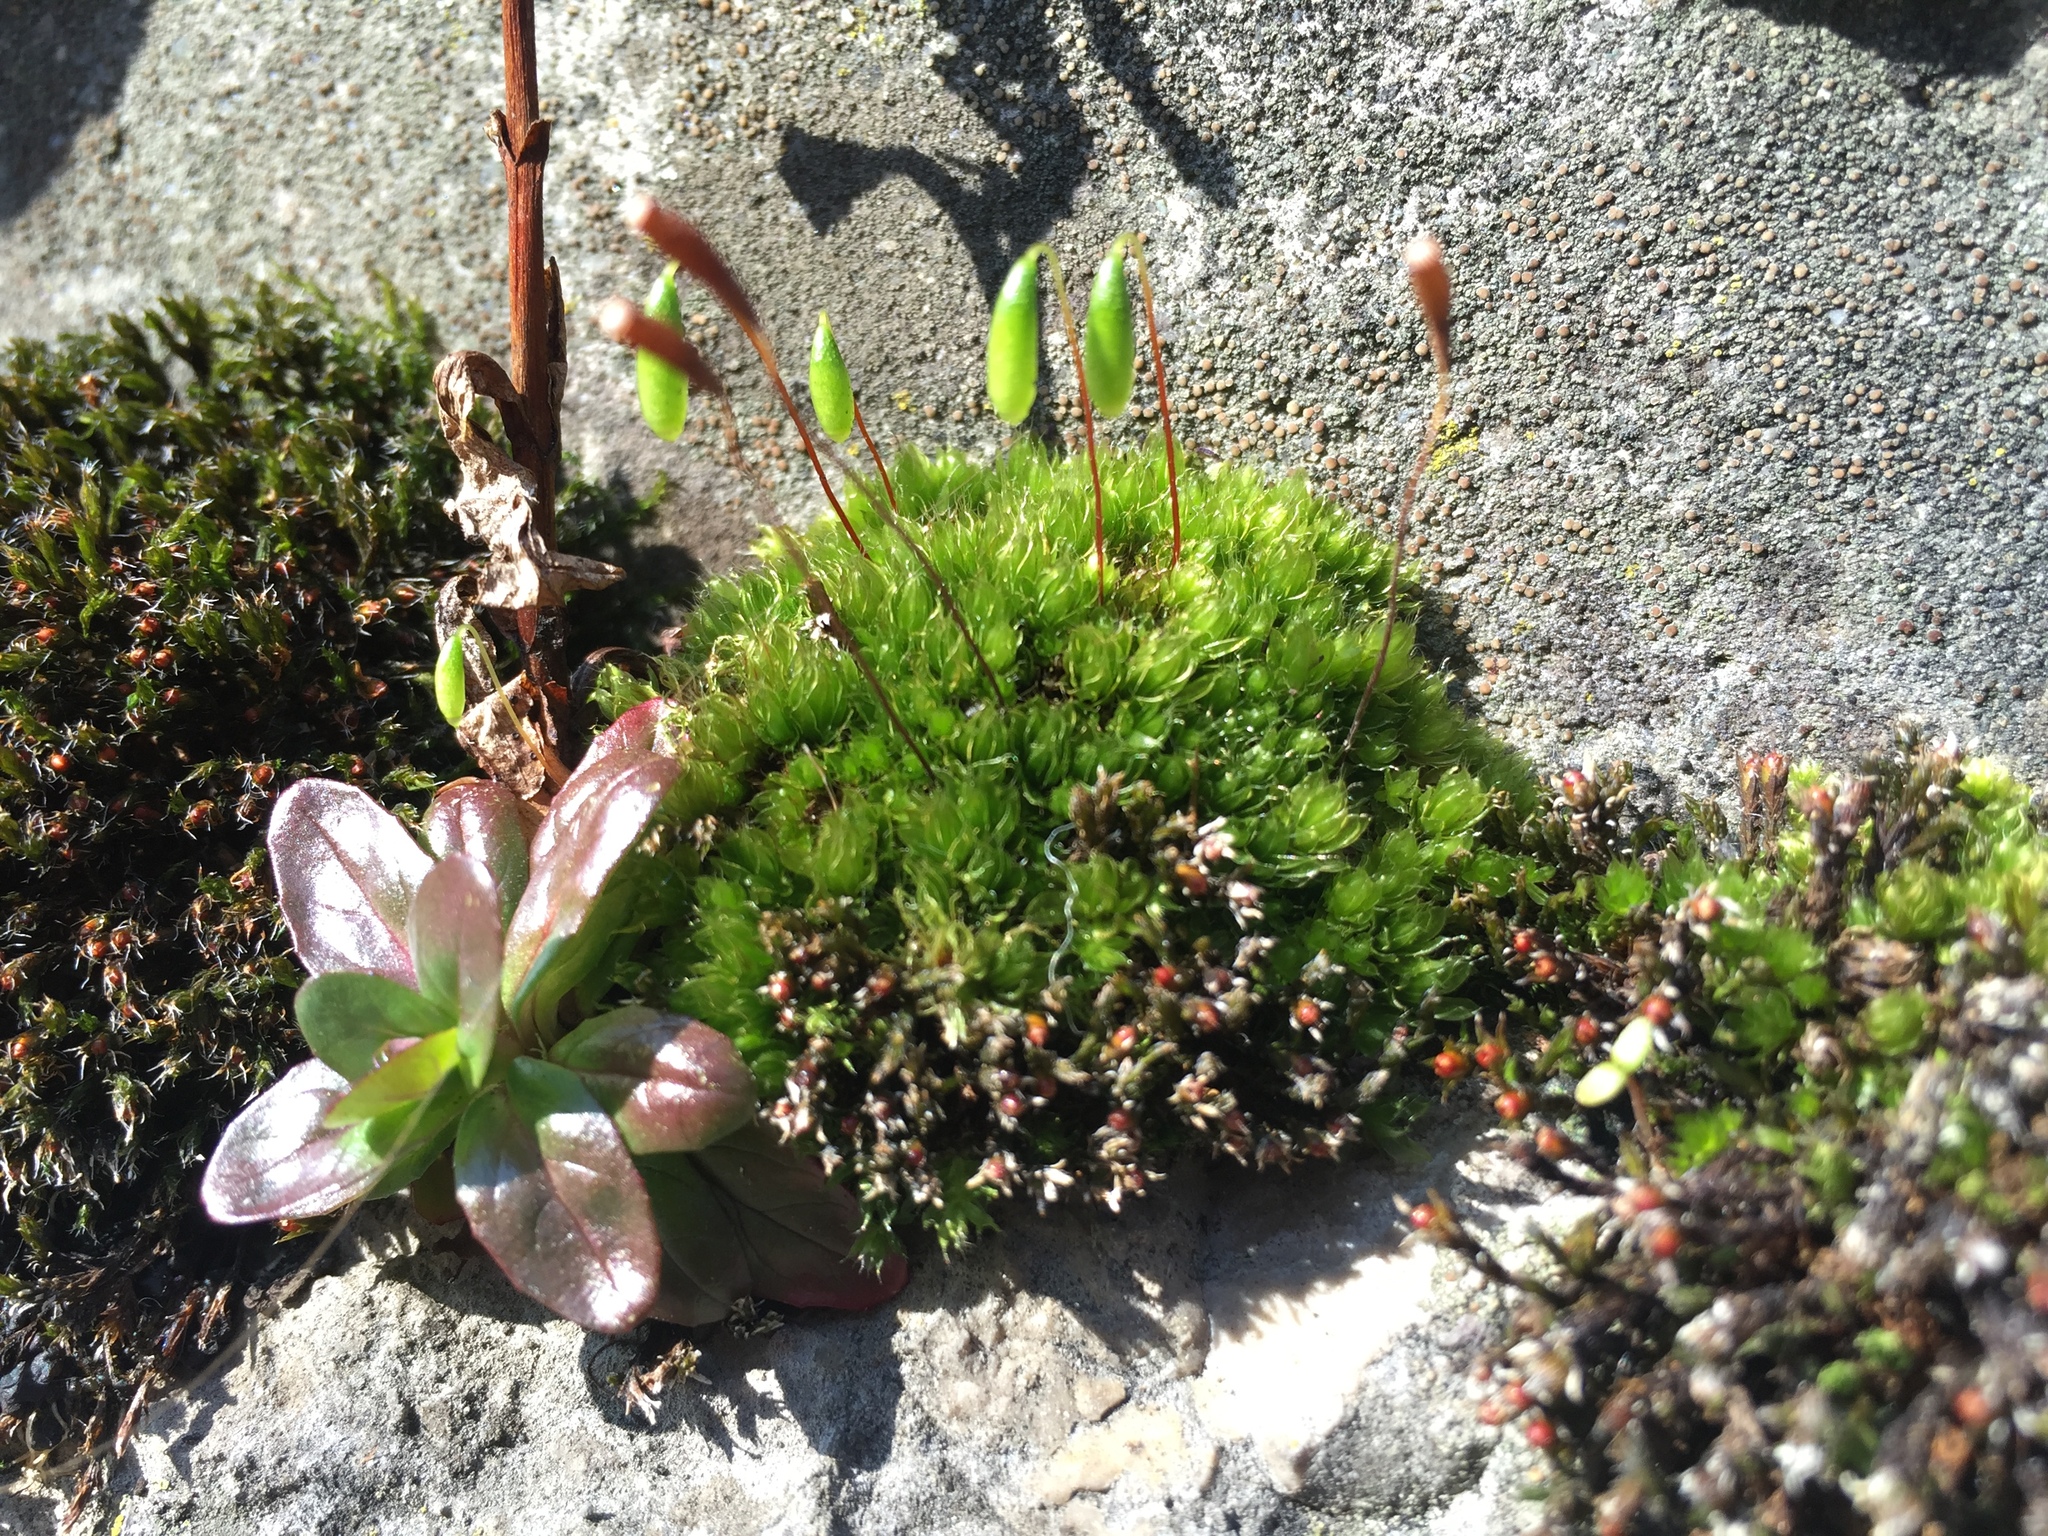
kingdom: Plantae
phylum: Bryophyta
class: Bryopsida
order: Bryales
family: Bryaceae
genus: Rosulabryum
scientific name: Rosulabryum capillare
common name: Capillary thread-moss
